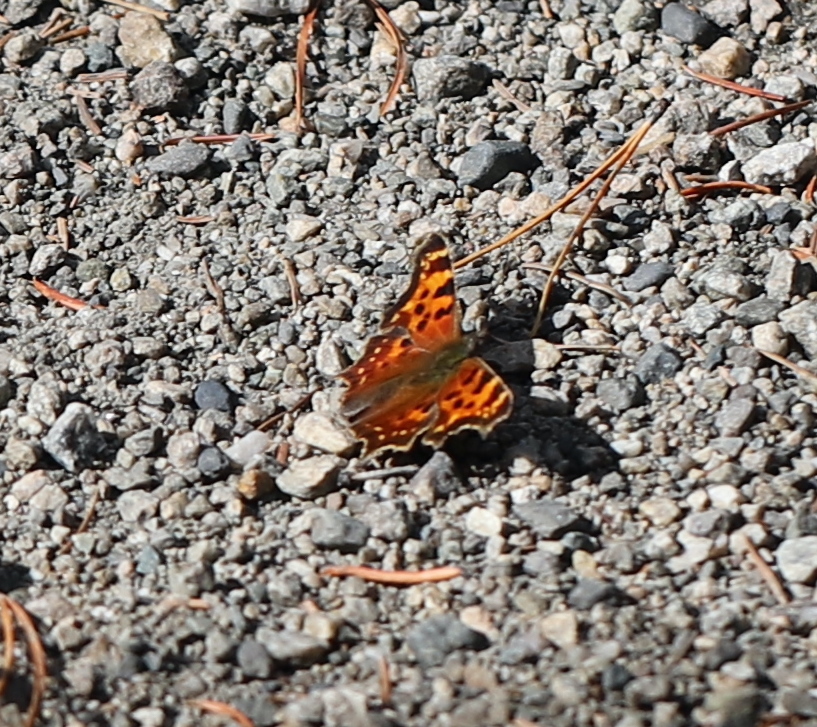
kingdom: Animalia
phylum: Arthropoda
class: Insecta
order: Lepidoptera
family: Nymphalidae
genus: Polygonia
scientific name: Polygonia faunus
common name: Green comma
